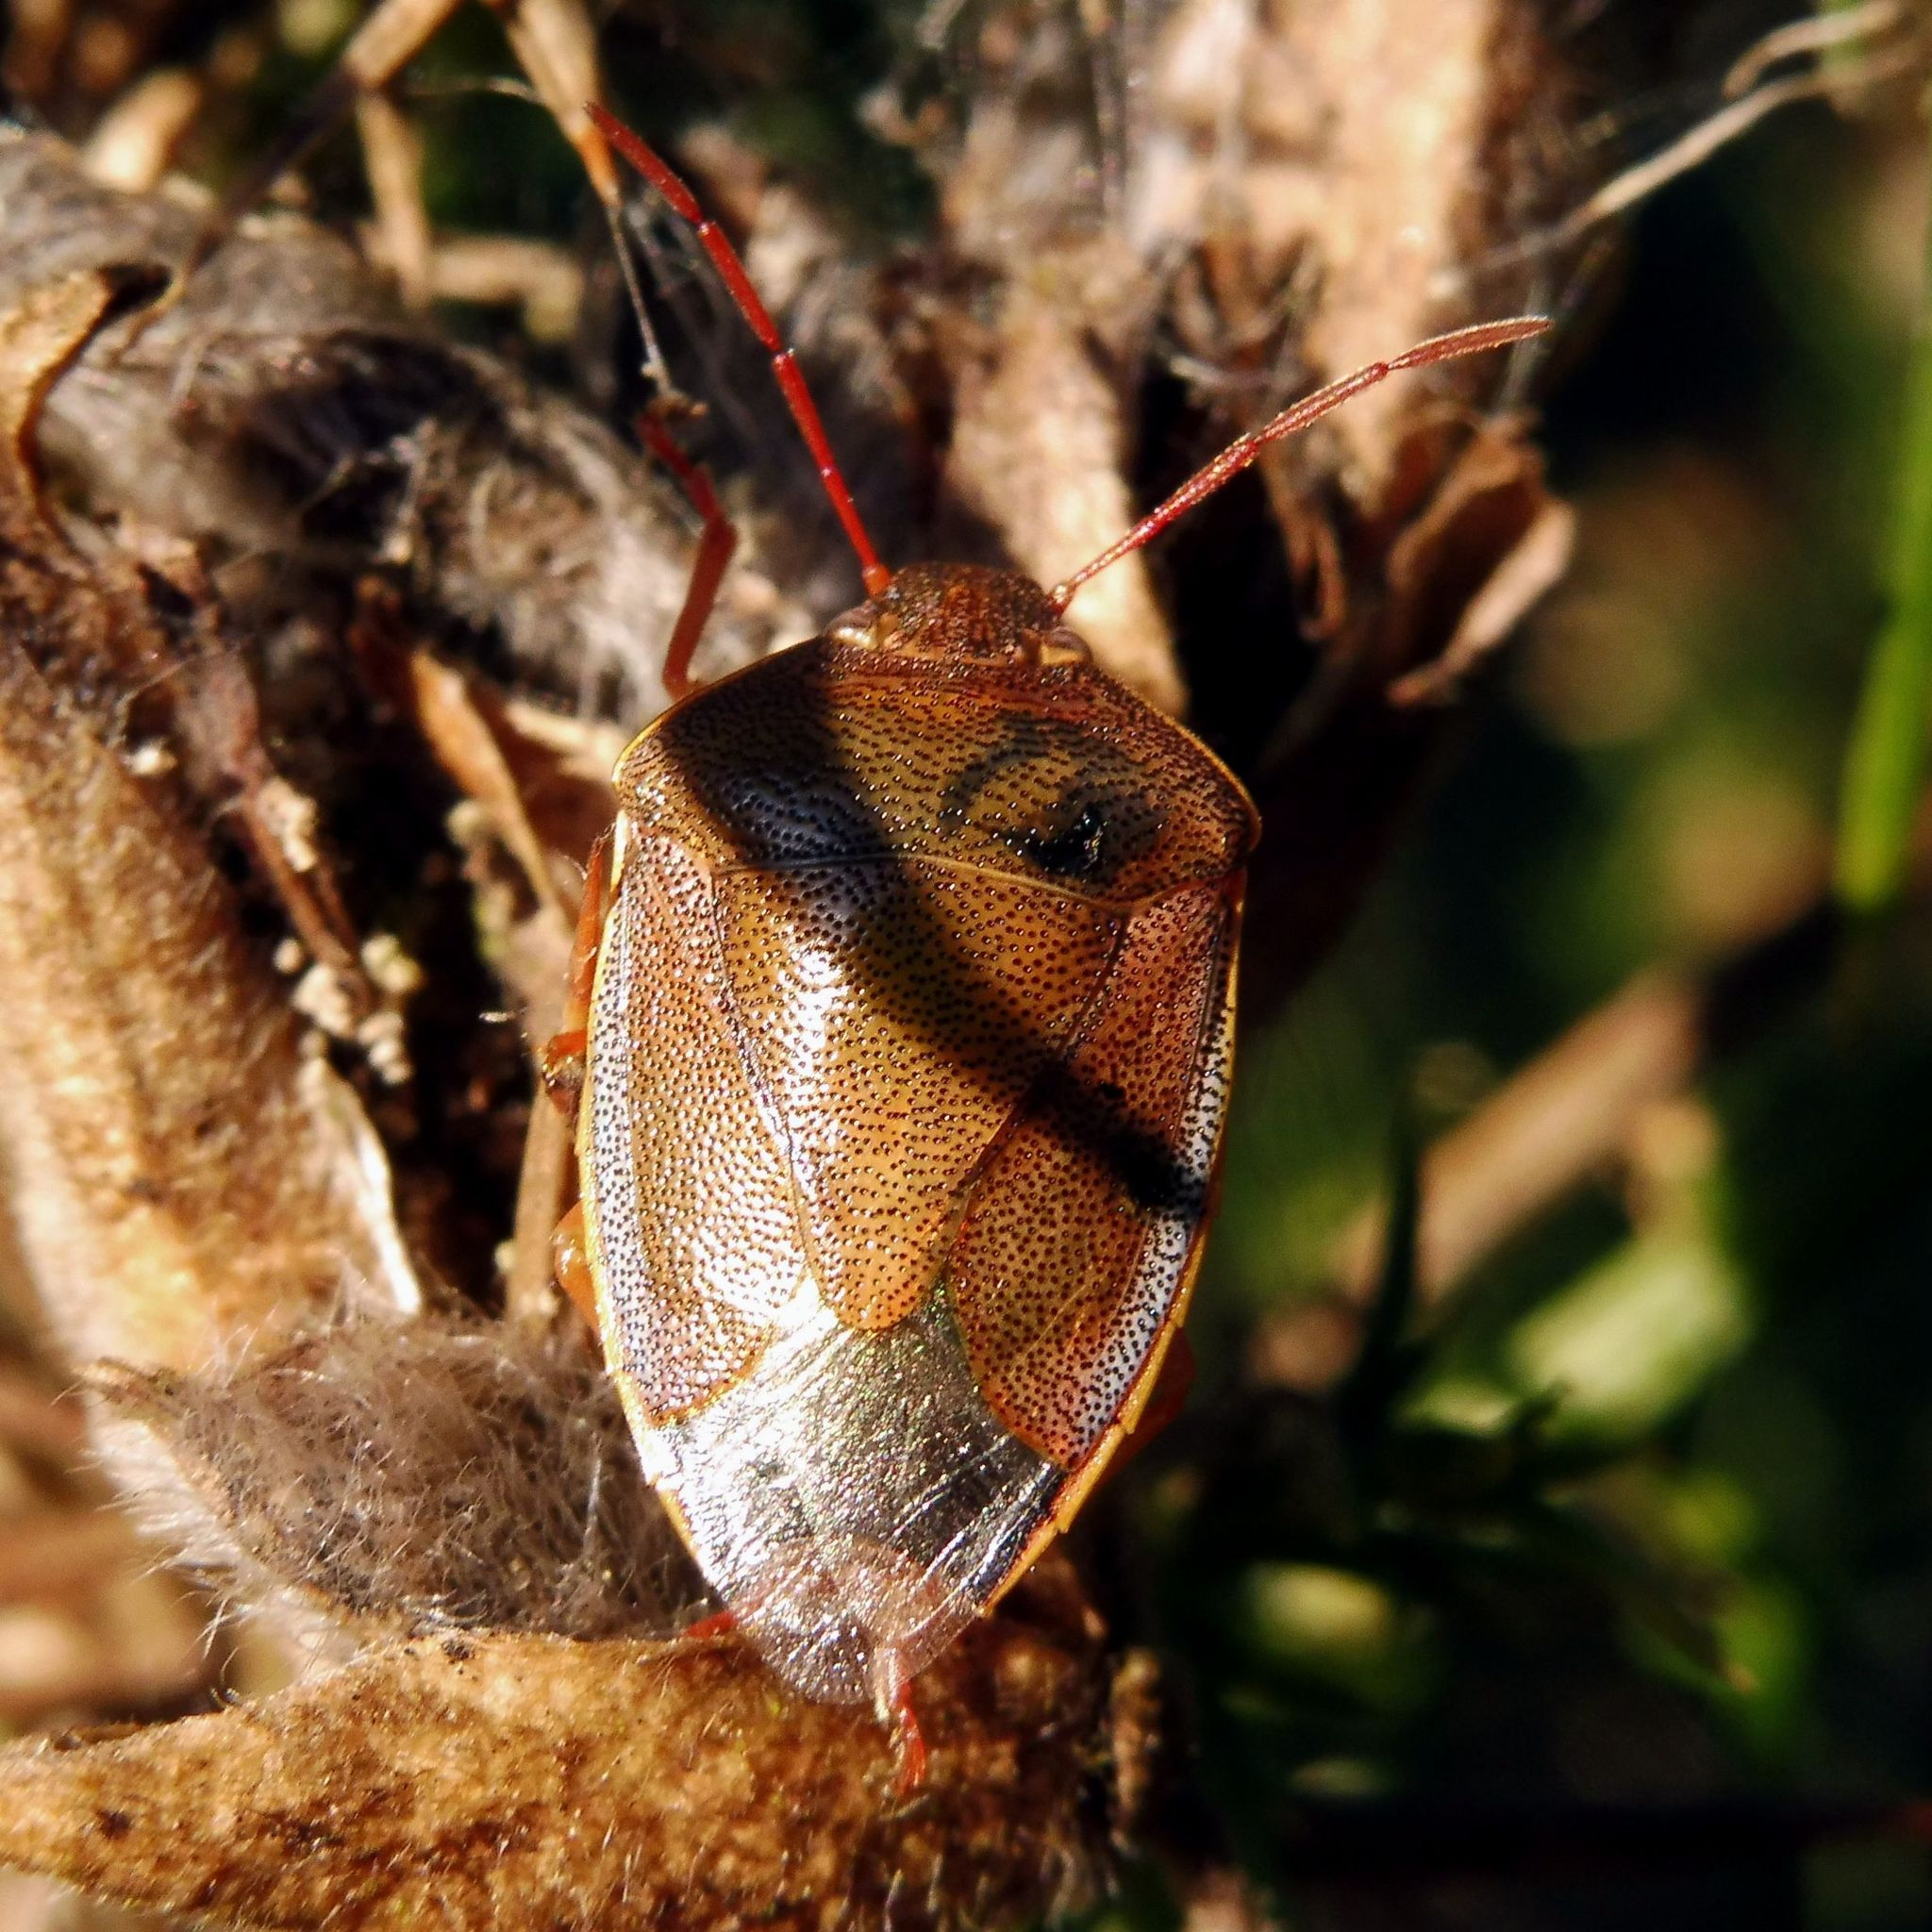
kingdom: Animalia
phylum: Arthropoda
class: Insecta
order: Hemiptera
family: Pentatomidae
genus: Piezodorus
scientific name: Piezodorus lituratus
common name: Stink bug
